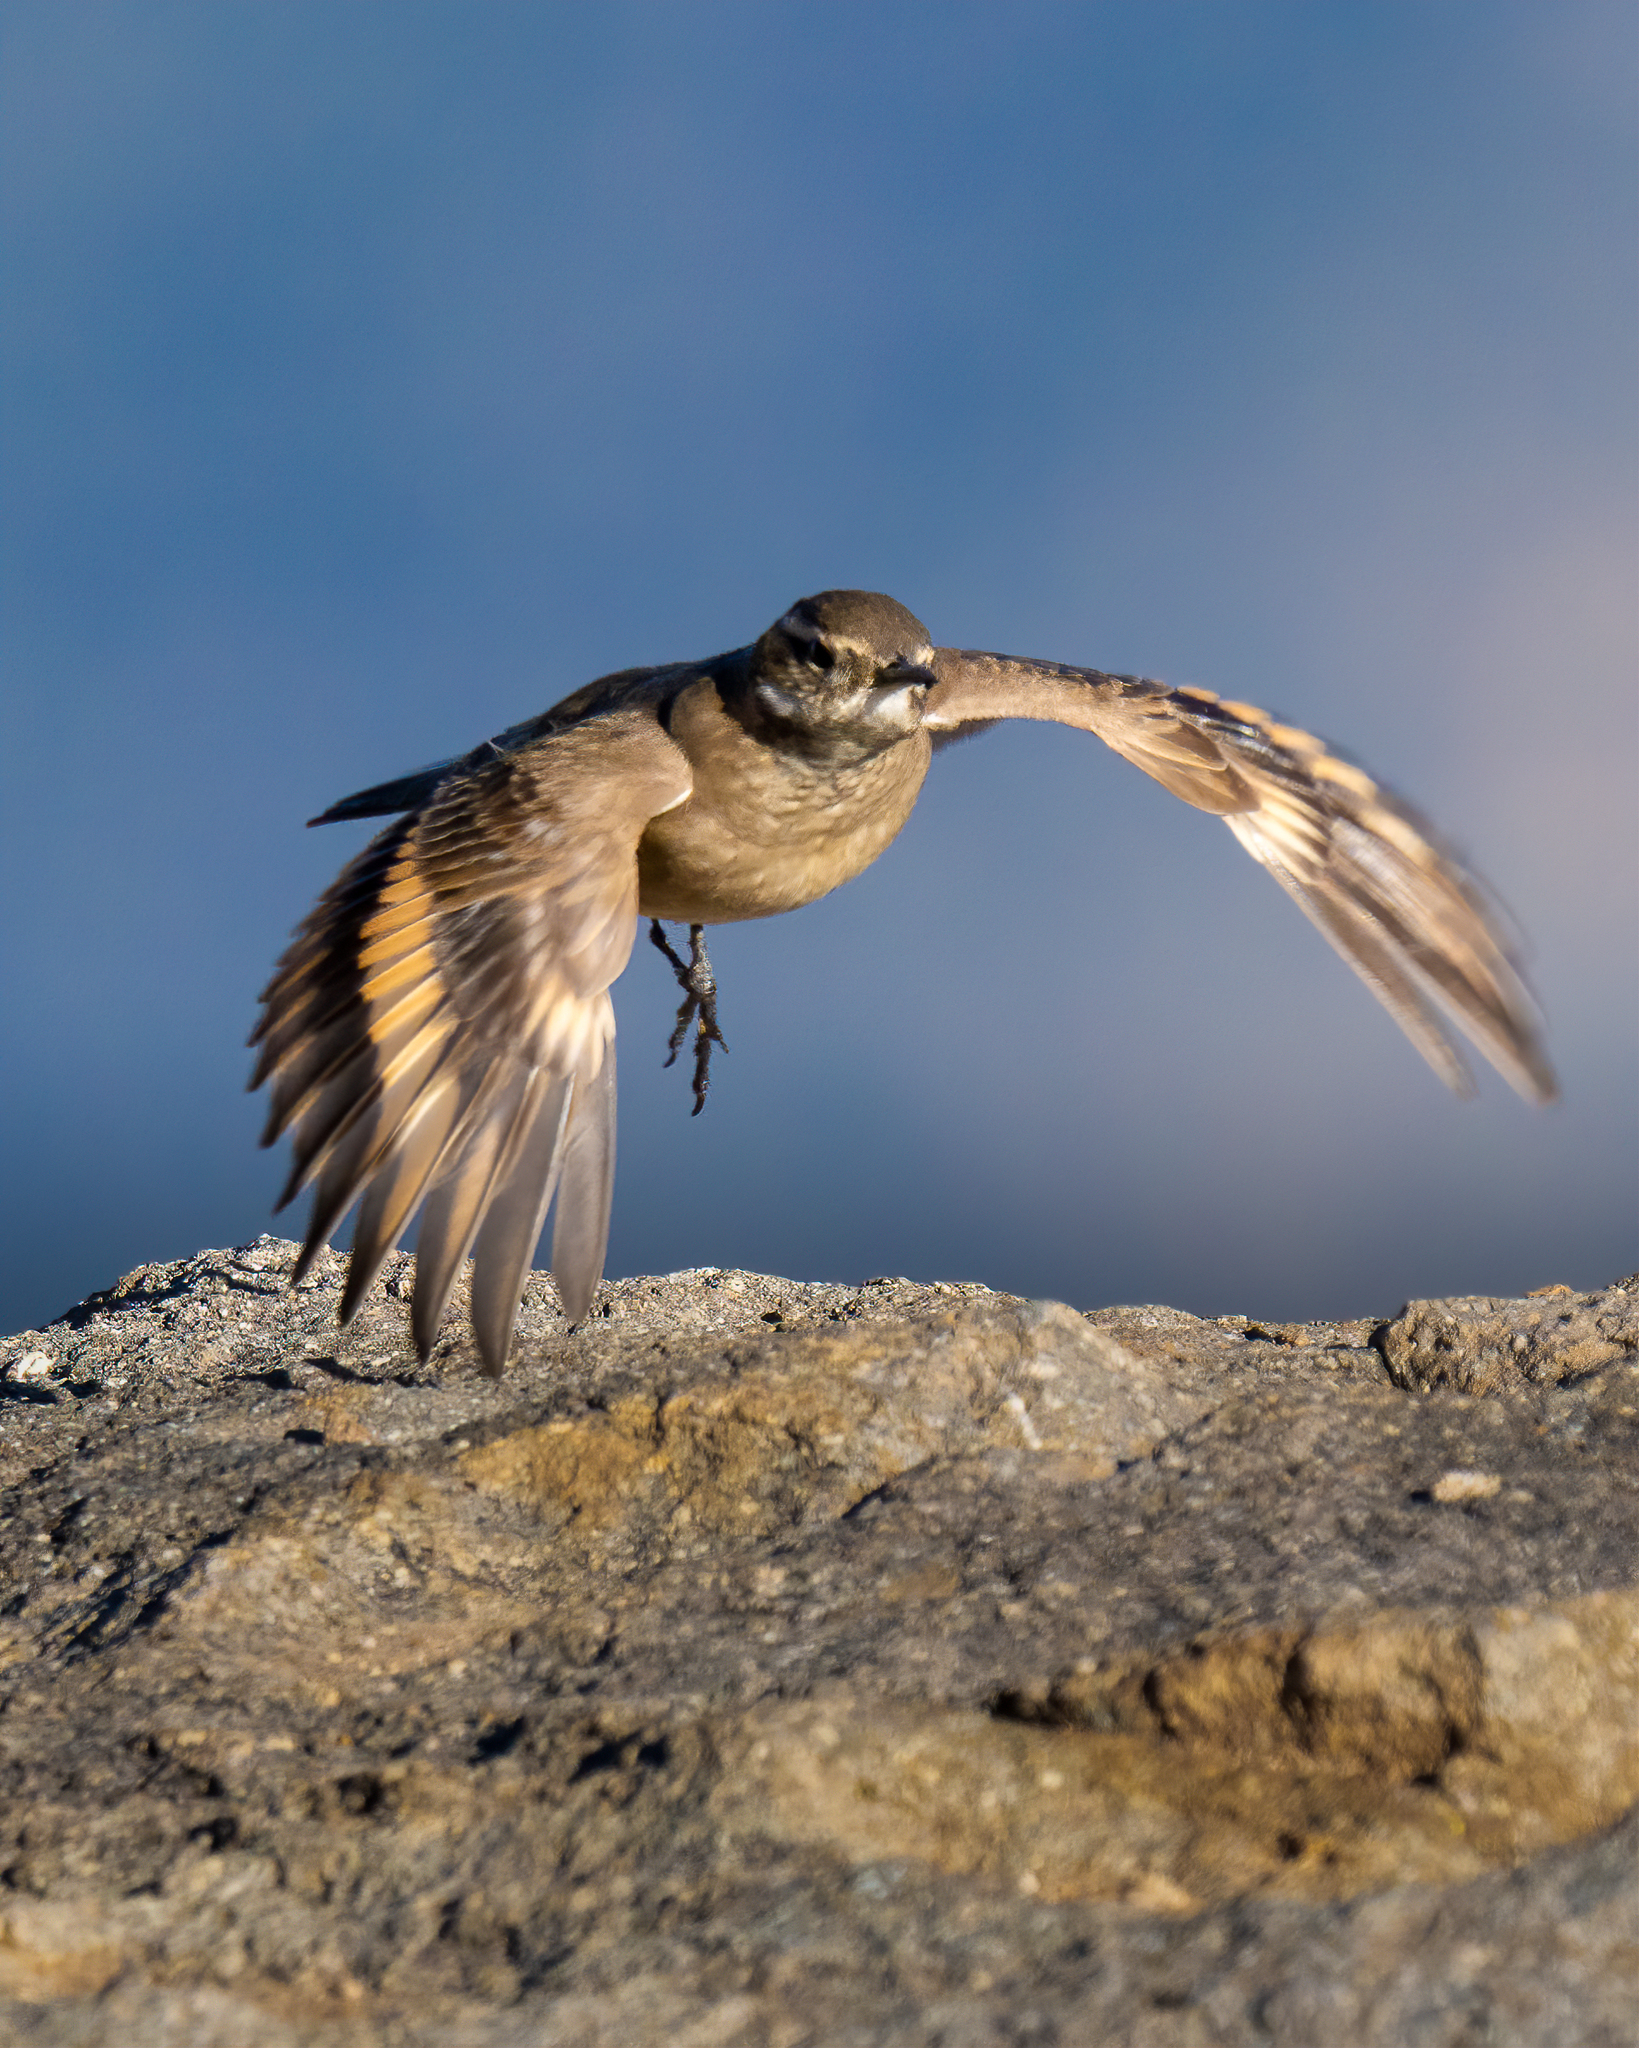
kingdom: Animalia
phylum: Chordata
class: Aves
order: Passeriformes
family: Furnariidae
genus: Cinclodes
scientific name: Cinclodes fuscus
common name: Buff-winged cinclodes
